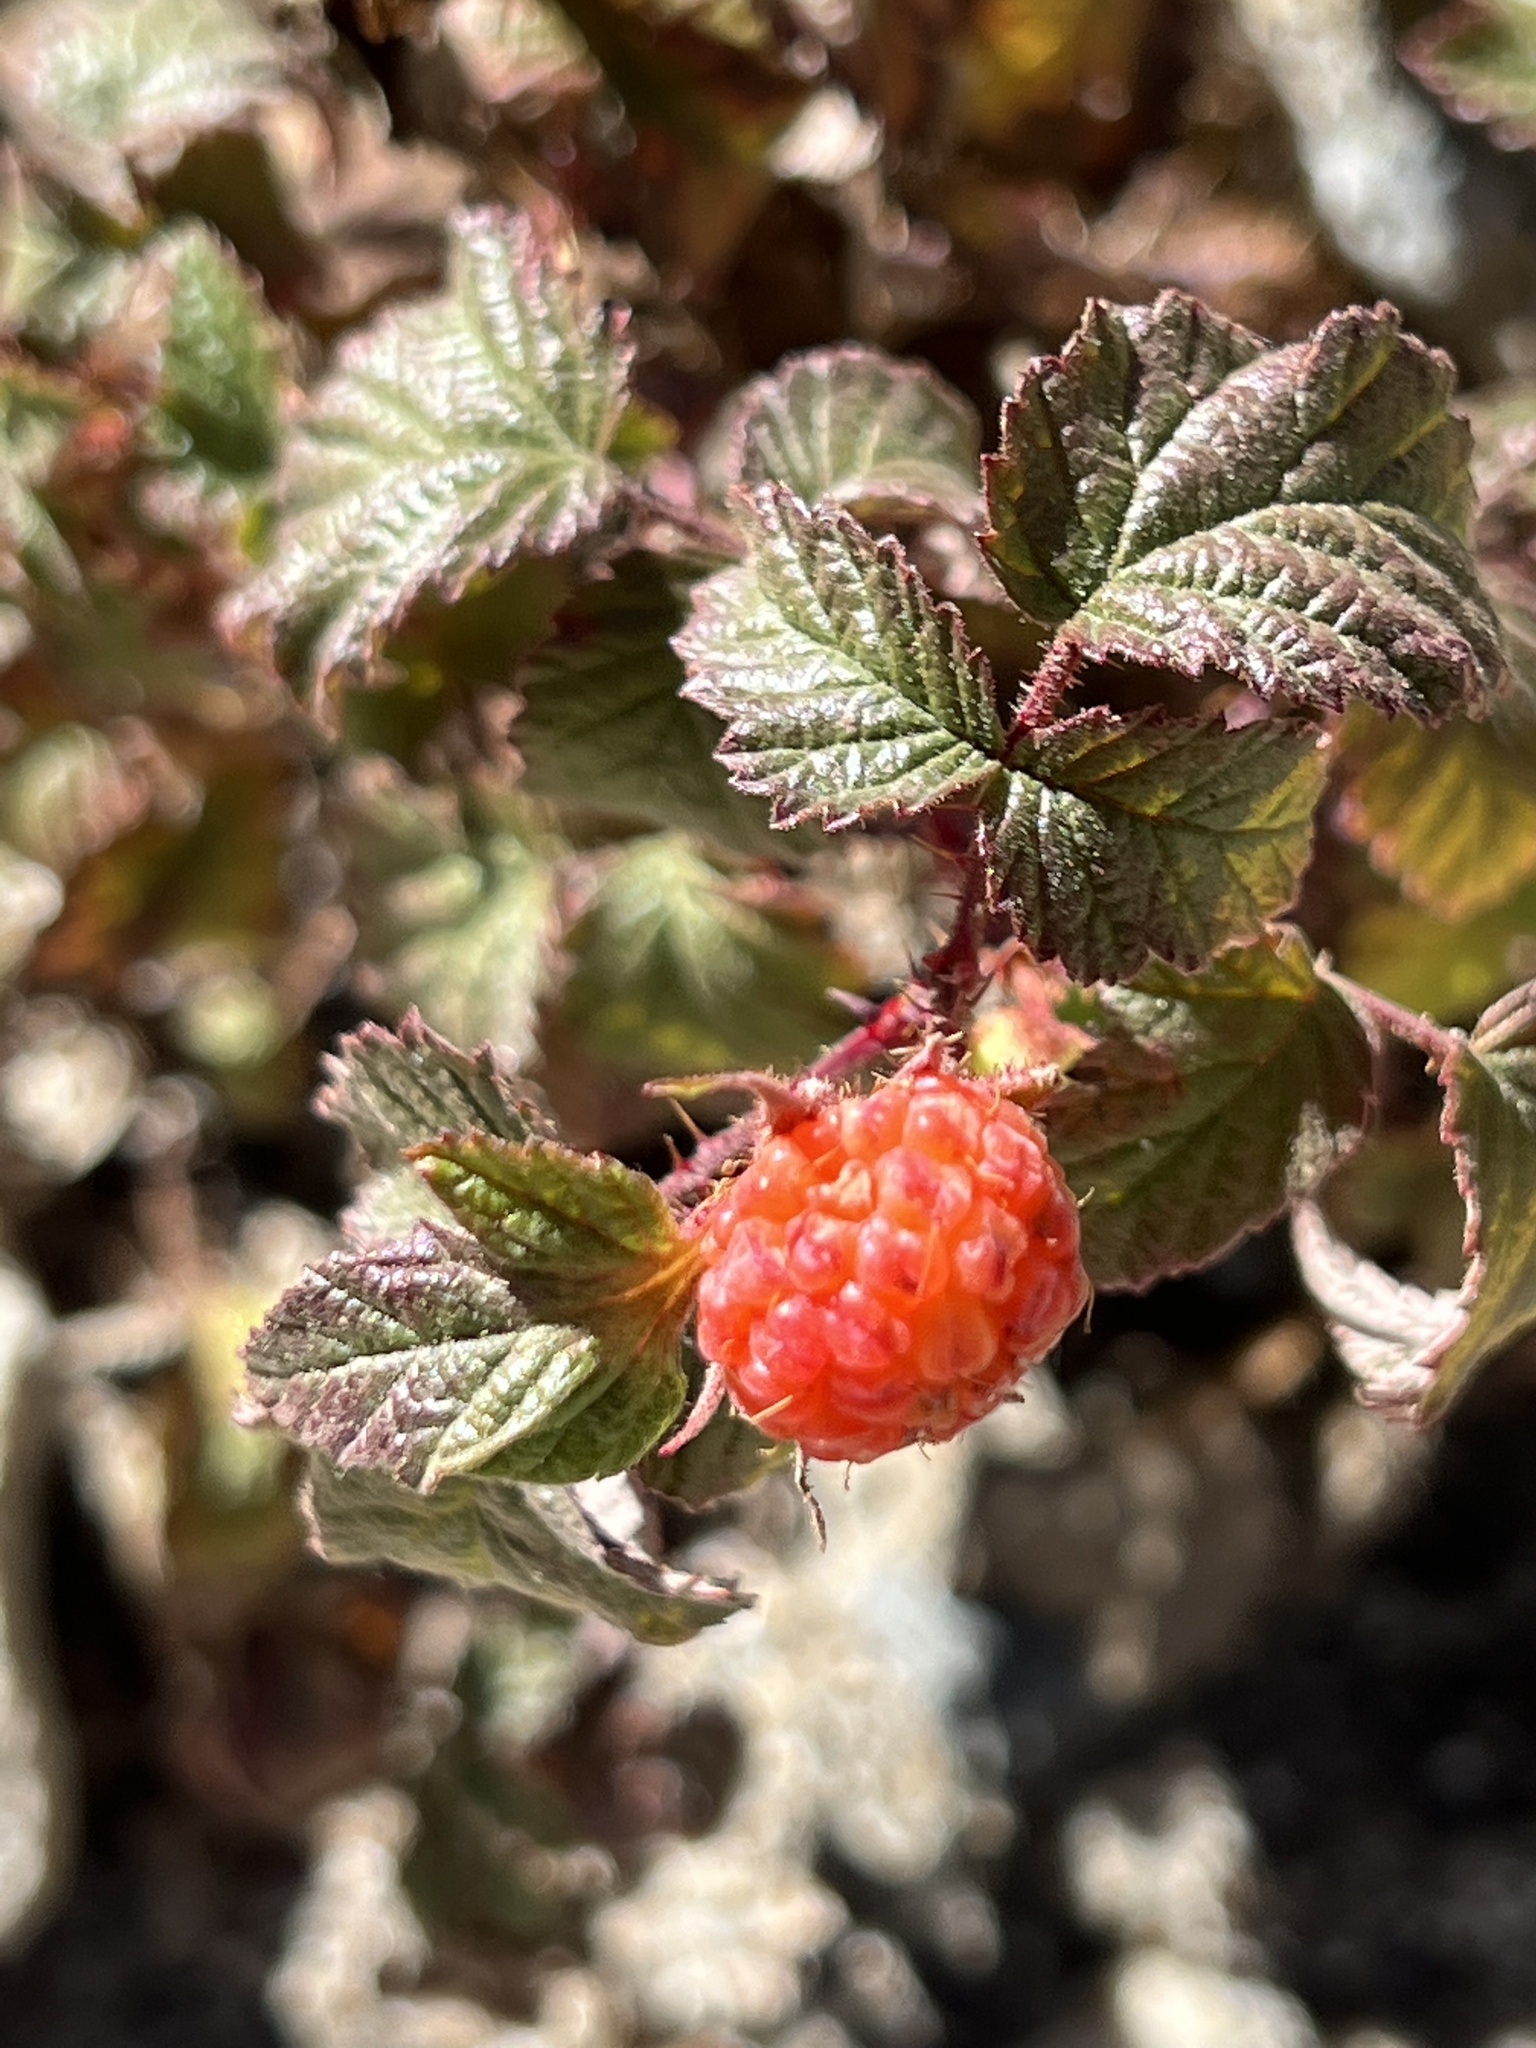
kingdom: Plantae
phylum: Tracheophyta
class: Magnoliopsida
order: Rosales
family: Rosaceae
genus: Rubus
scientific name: Rubus idaeus
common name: Raspberry
